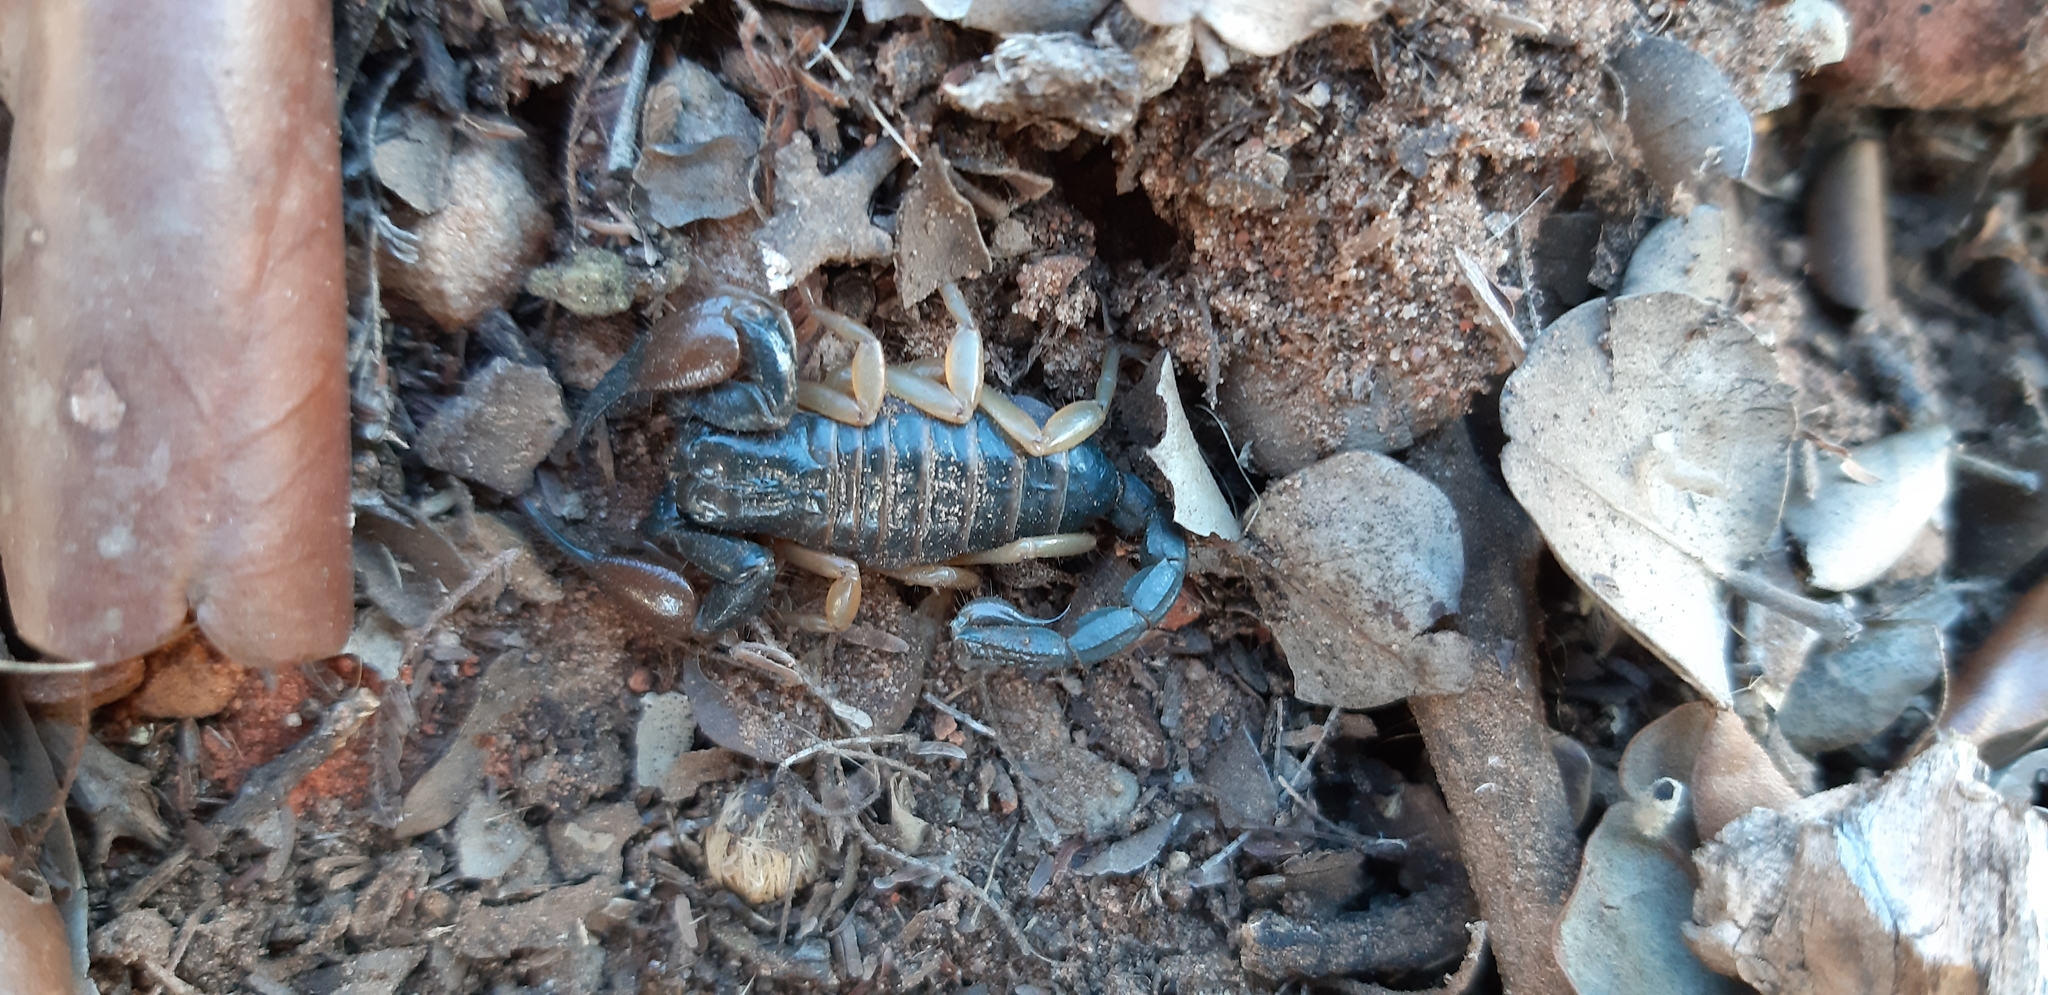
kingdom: Animalia
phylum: Arthropoda
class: Arachnida
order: Scorpiones
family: Scorpionidae
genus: Opistophthalmus
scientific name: Opistophthalmus lawrencei
